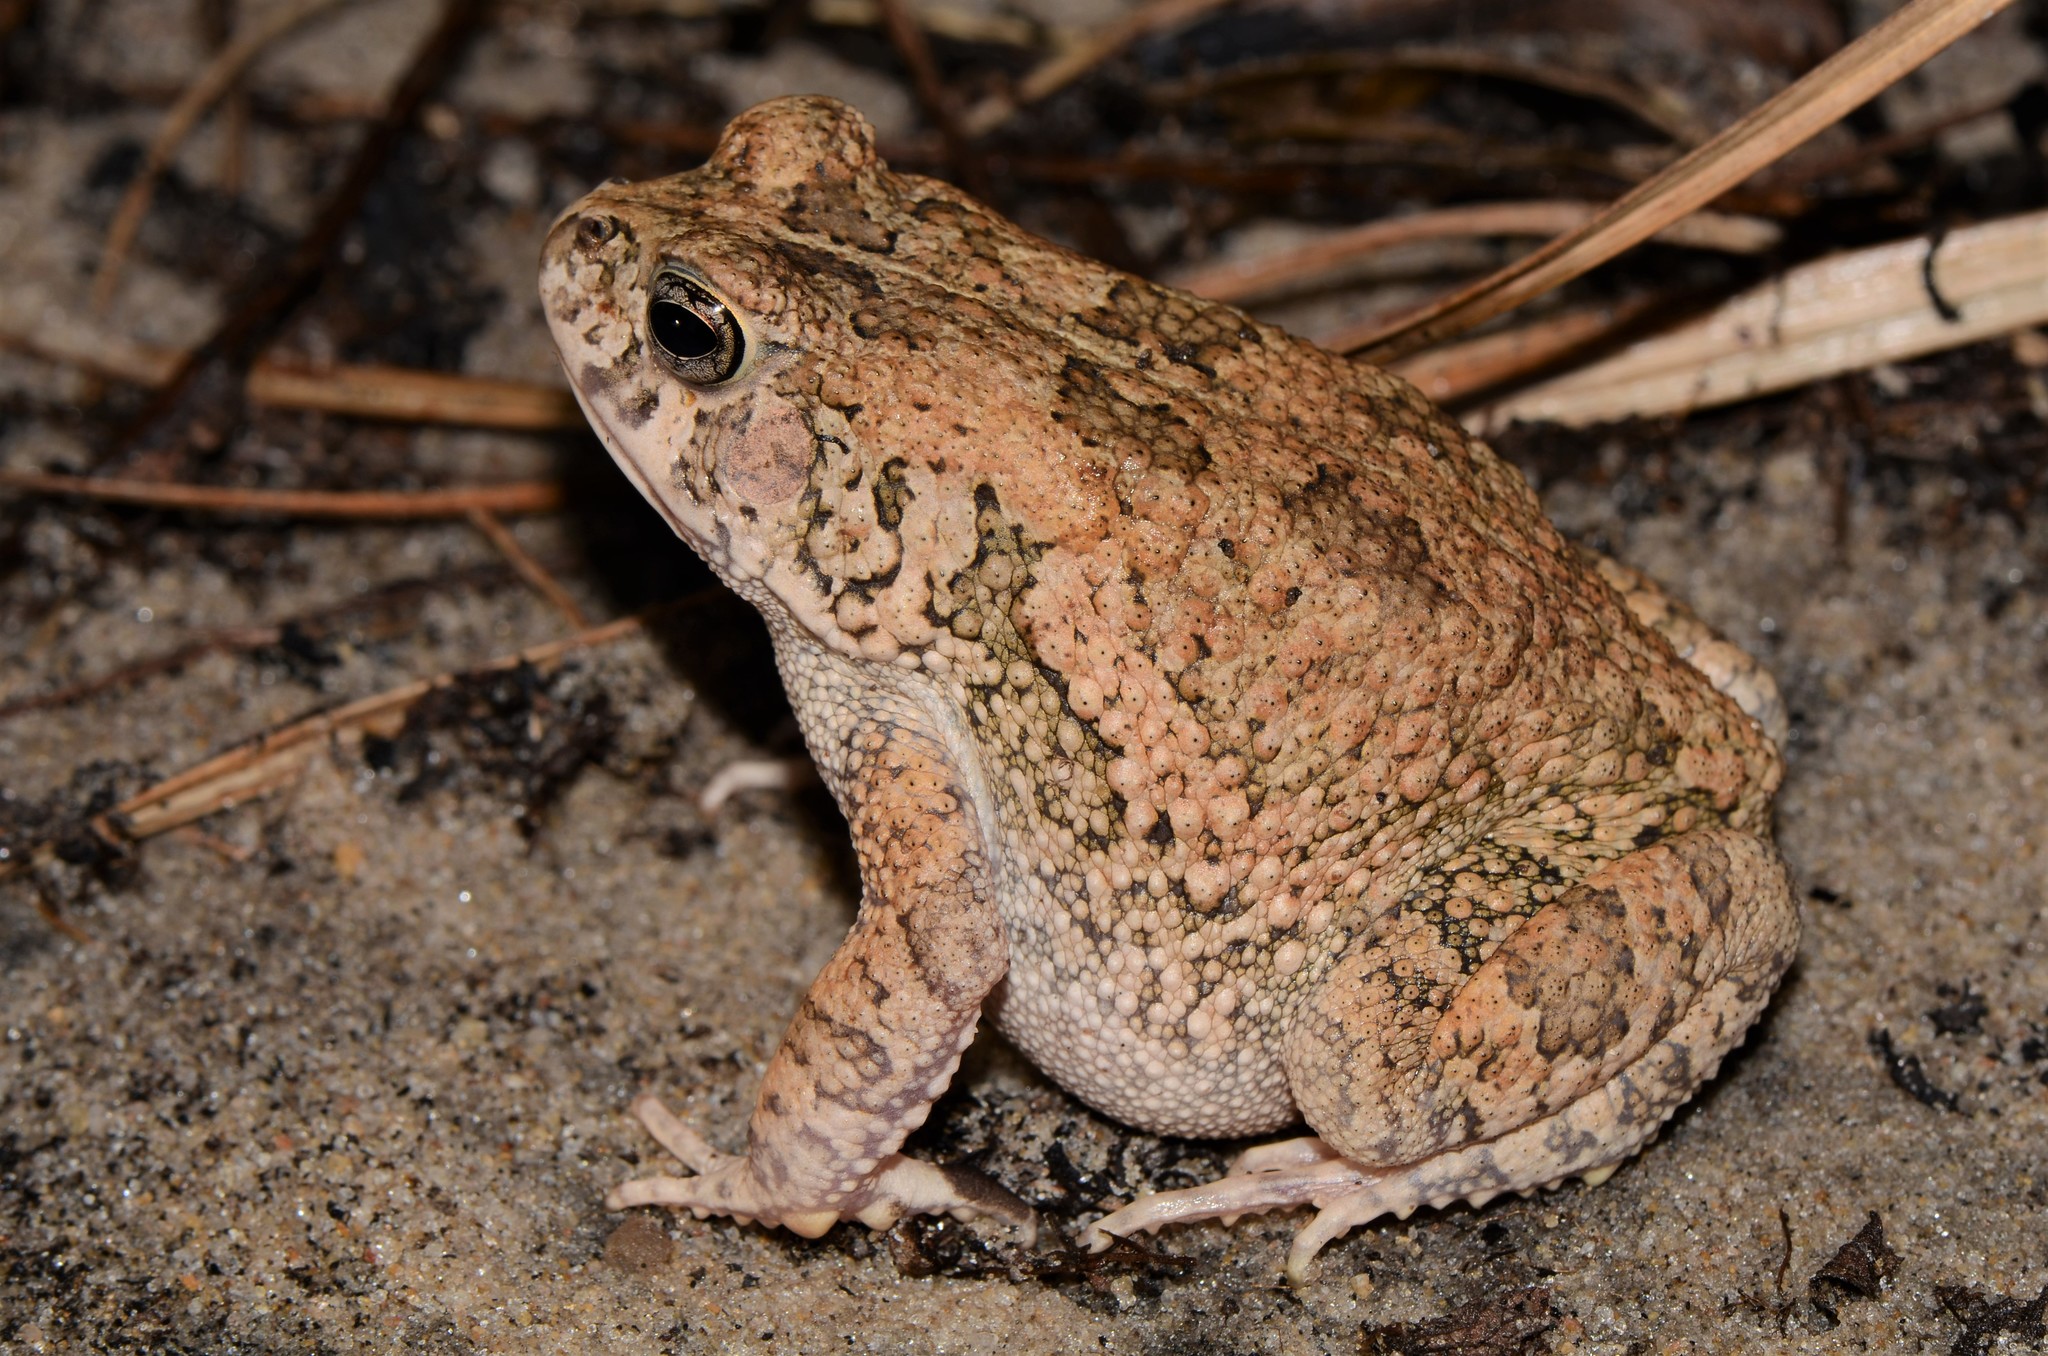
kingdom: Animalia
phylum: Chordata
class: Amphibia
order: Anura
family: Bufonidae
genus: Sclerophrys
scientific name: Sclerophrys pusilla
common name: Merten's striped toad
